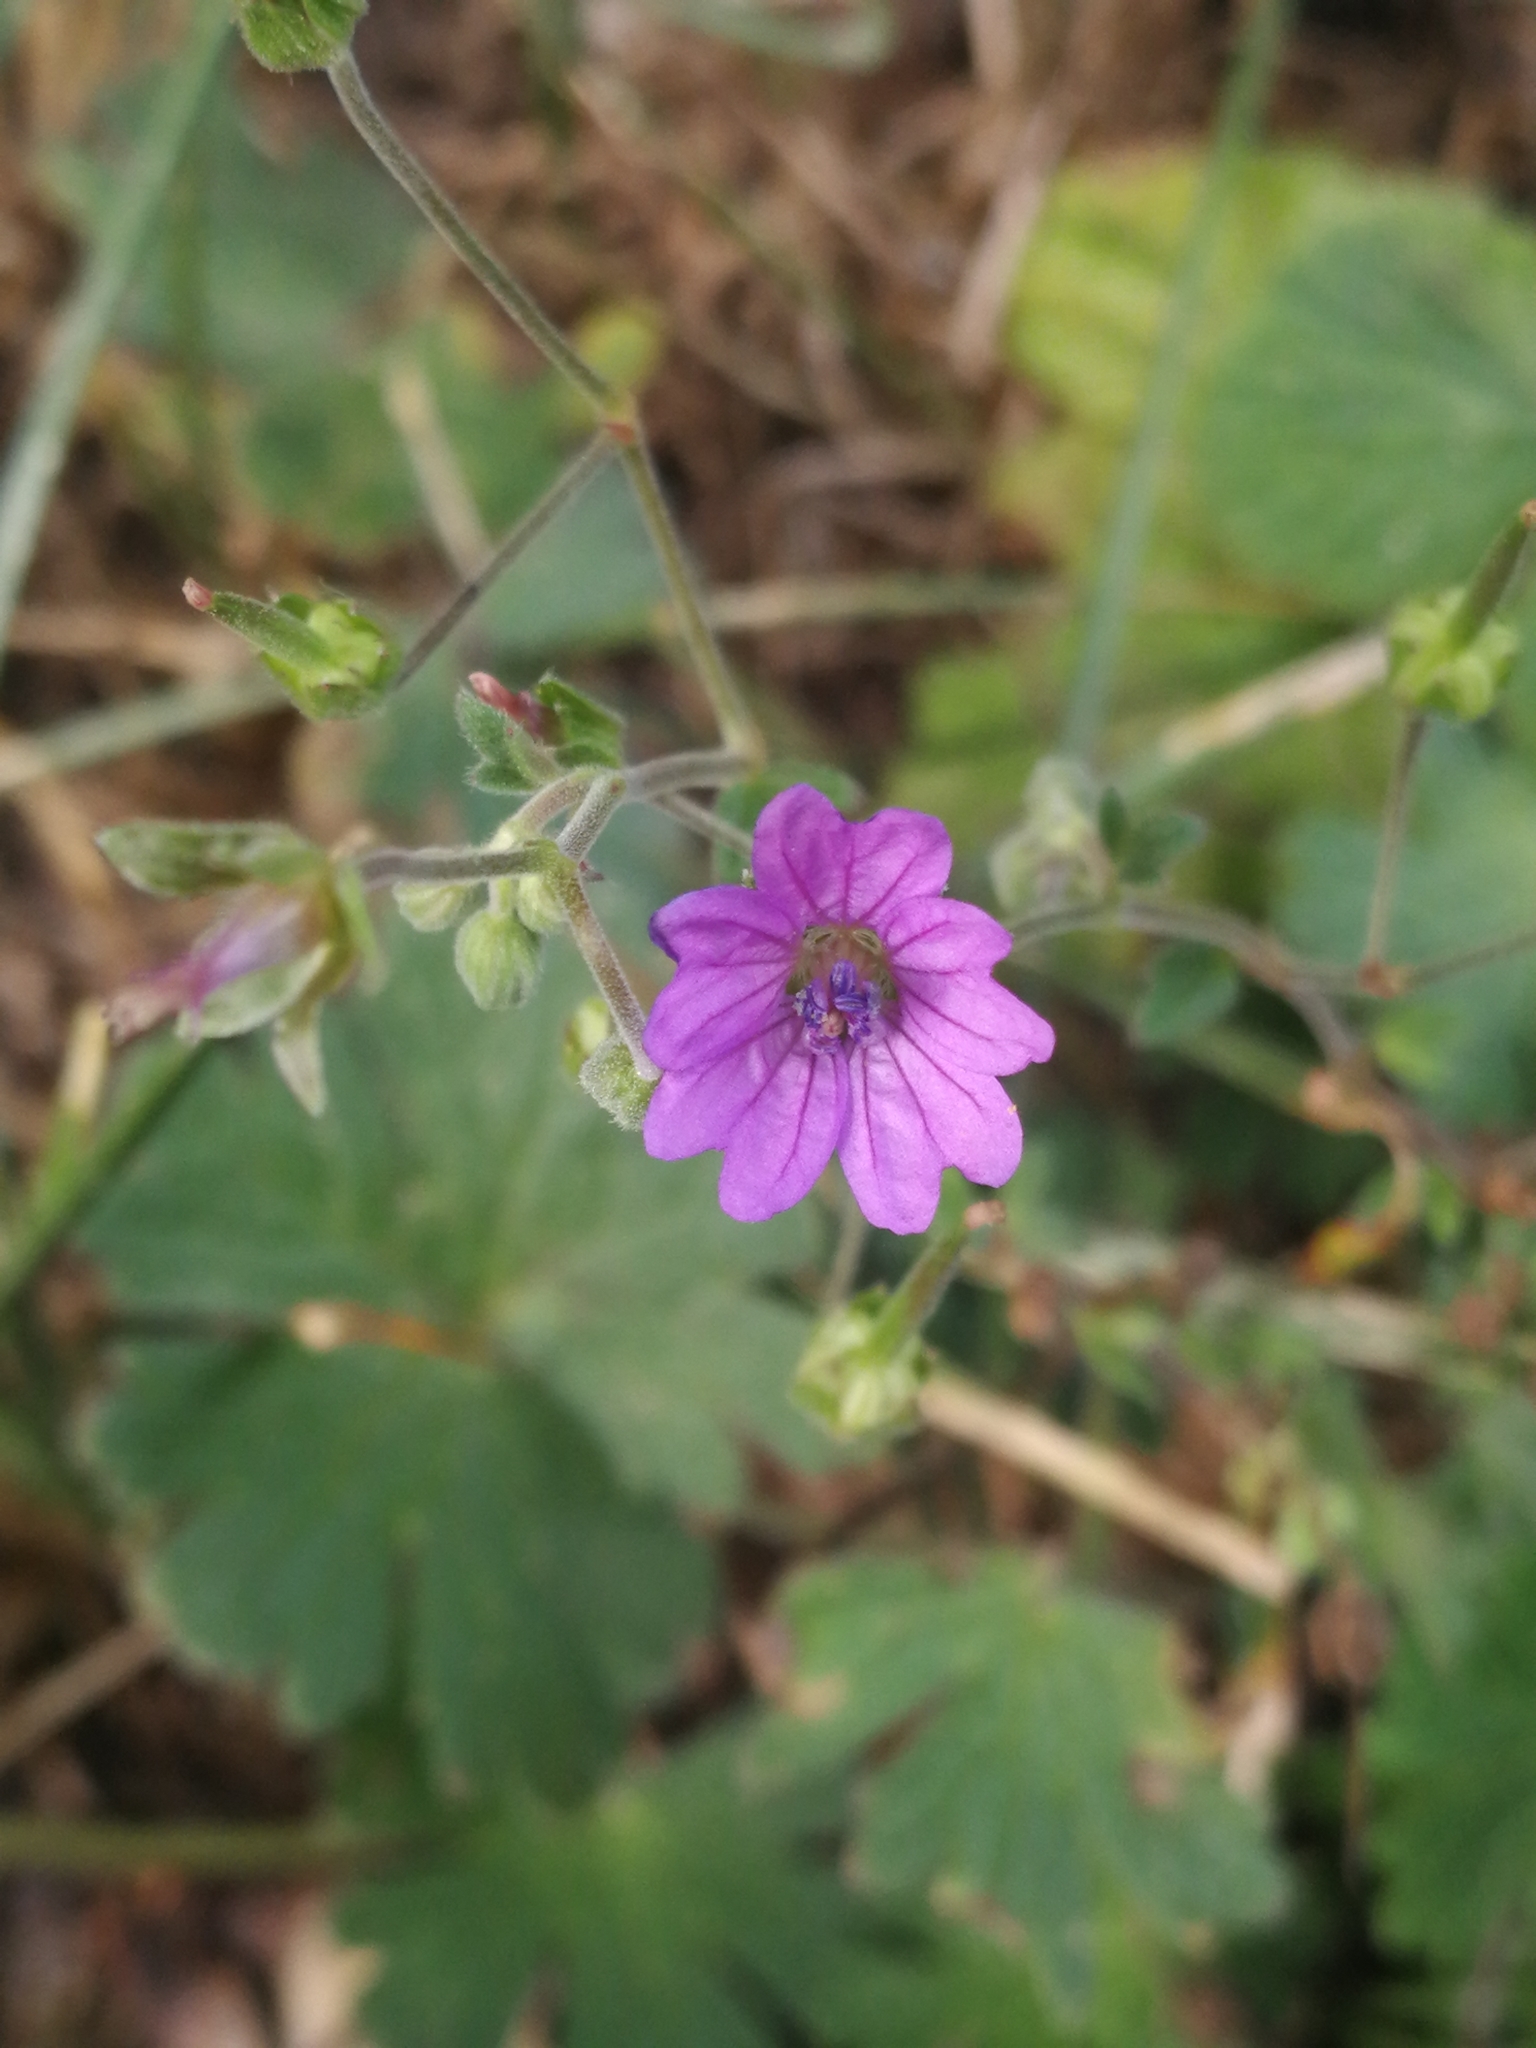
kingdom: Plantae
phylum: Tracheophyta
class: Magnoliopsida
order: Geraniales
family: Geraniaceae
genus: Geranium
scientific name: Geranium pyrenaicum
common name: Hedgerow crane's-bill
